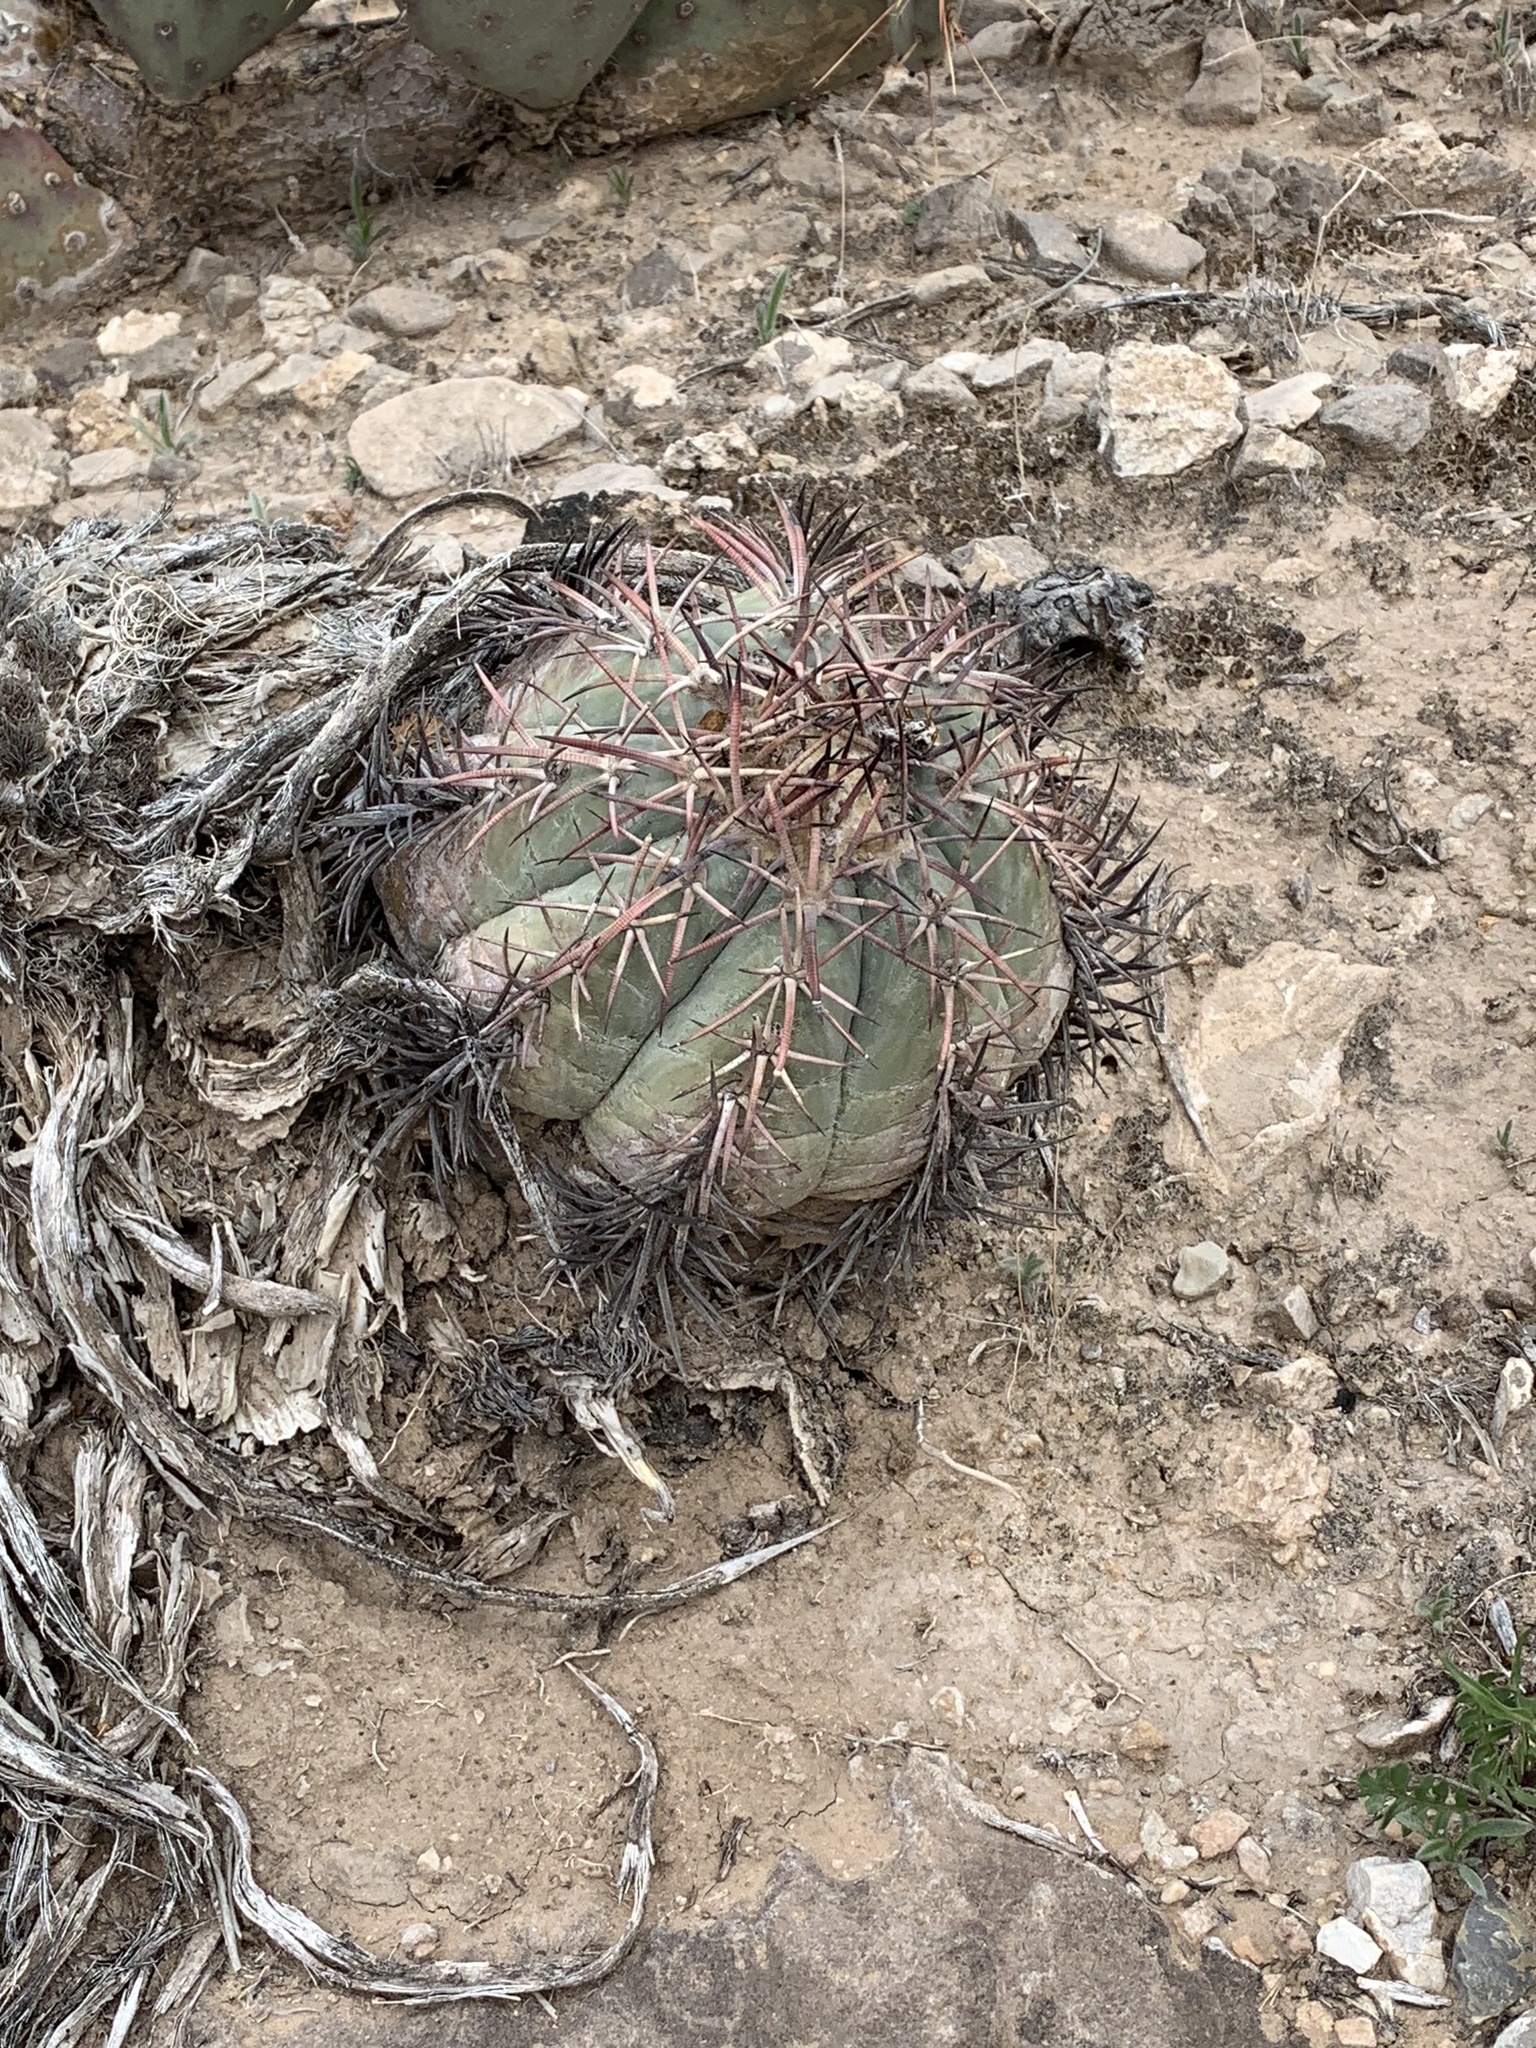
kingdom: Plantae
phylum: Tracheophyta
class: Magnoliopsida
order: Caryophyllales
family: Cactaceae
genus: Echinocactus
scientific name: Echinocactus horizonthalonius
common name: Devilshead
